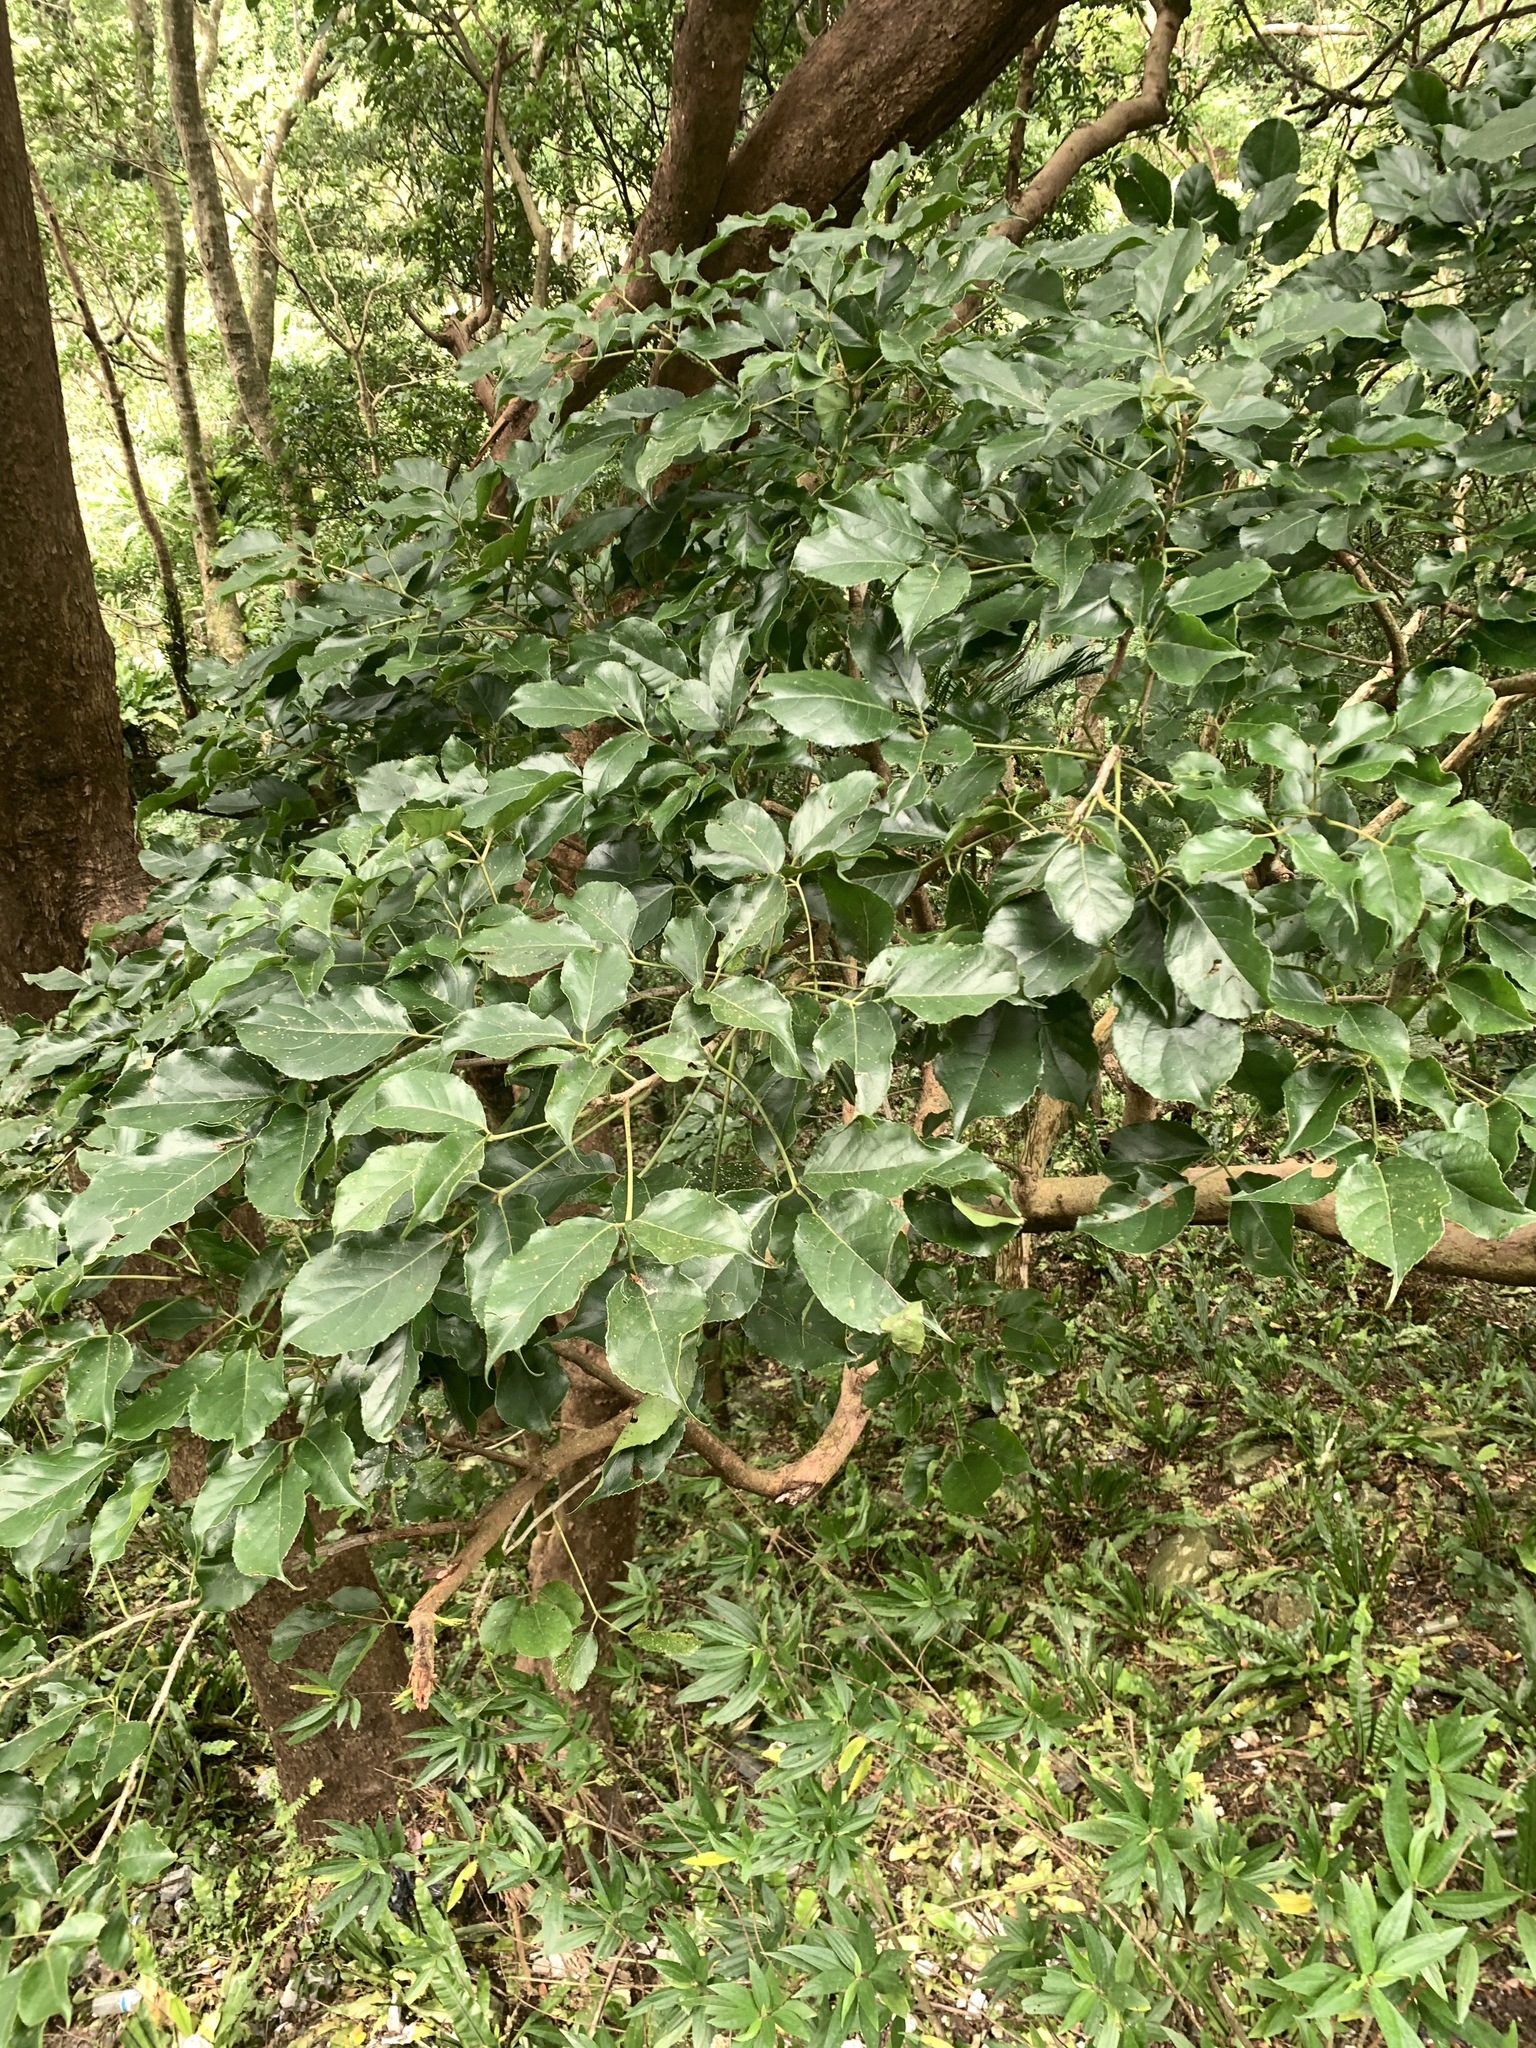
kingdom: Plantae
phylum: Tracheophyta
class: Magnoliopsida
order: Malpighiales
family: Phyllanthaceae
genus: Bischofia
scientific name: Bischofia javanica
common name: Javanese bishopwood
